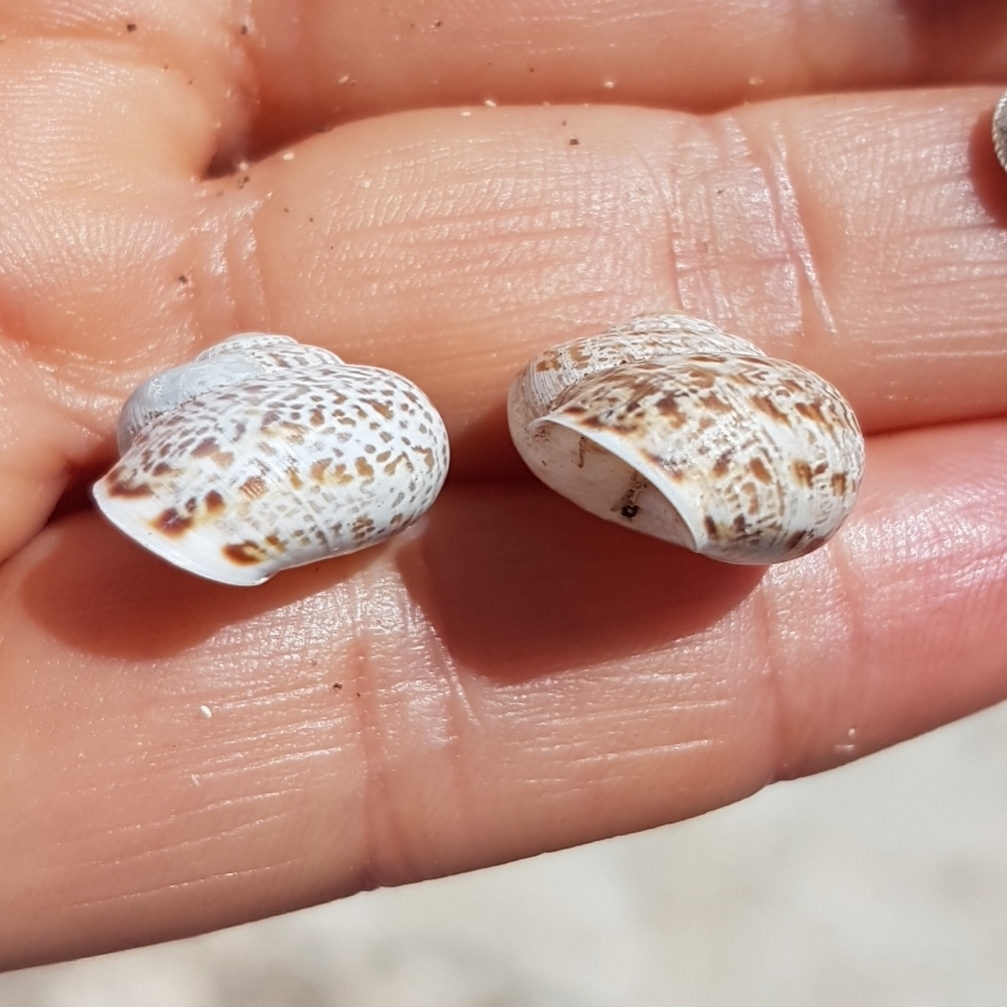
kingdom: Animalia
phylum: Mollusca
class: Gastropoda
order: Stylommatophora
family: Helicidae
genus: Iberellus
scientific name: Iberellus minoricensis
